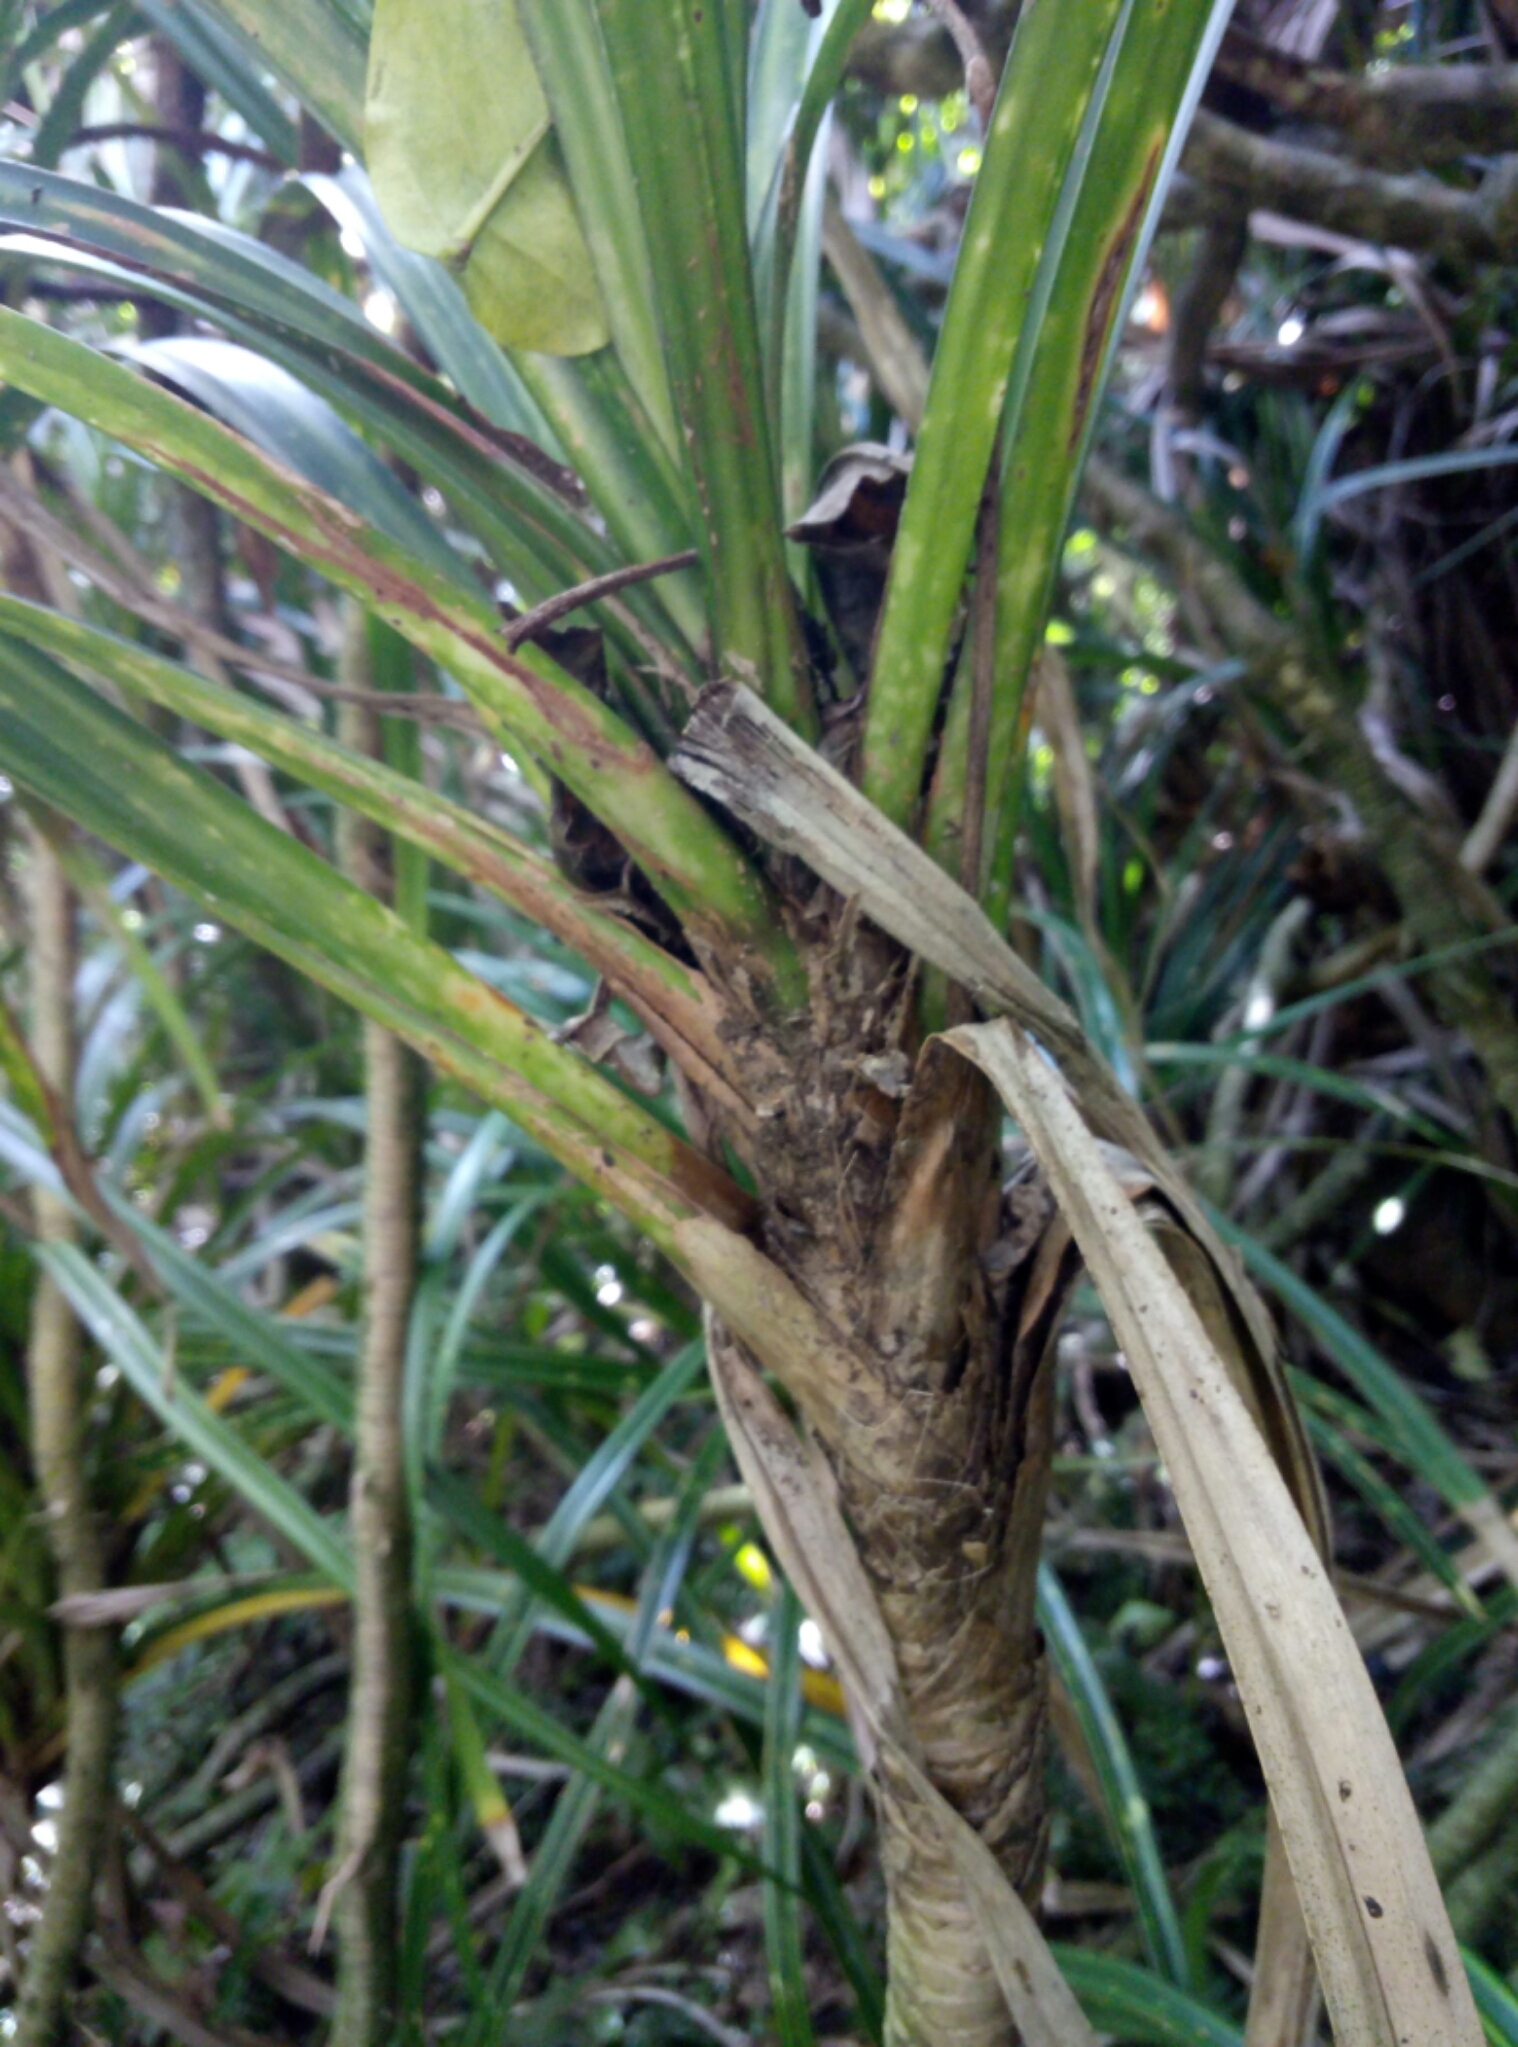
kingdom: Plantae
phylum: Tracheophyta
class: Liliopsida
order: Pandanales
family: Pandanaceae
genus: Freycinetia
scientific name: Freycinetia banksii
